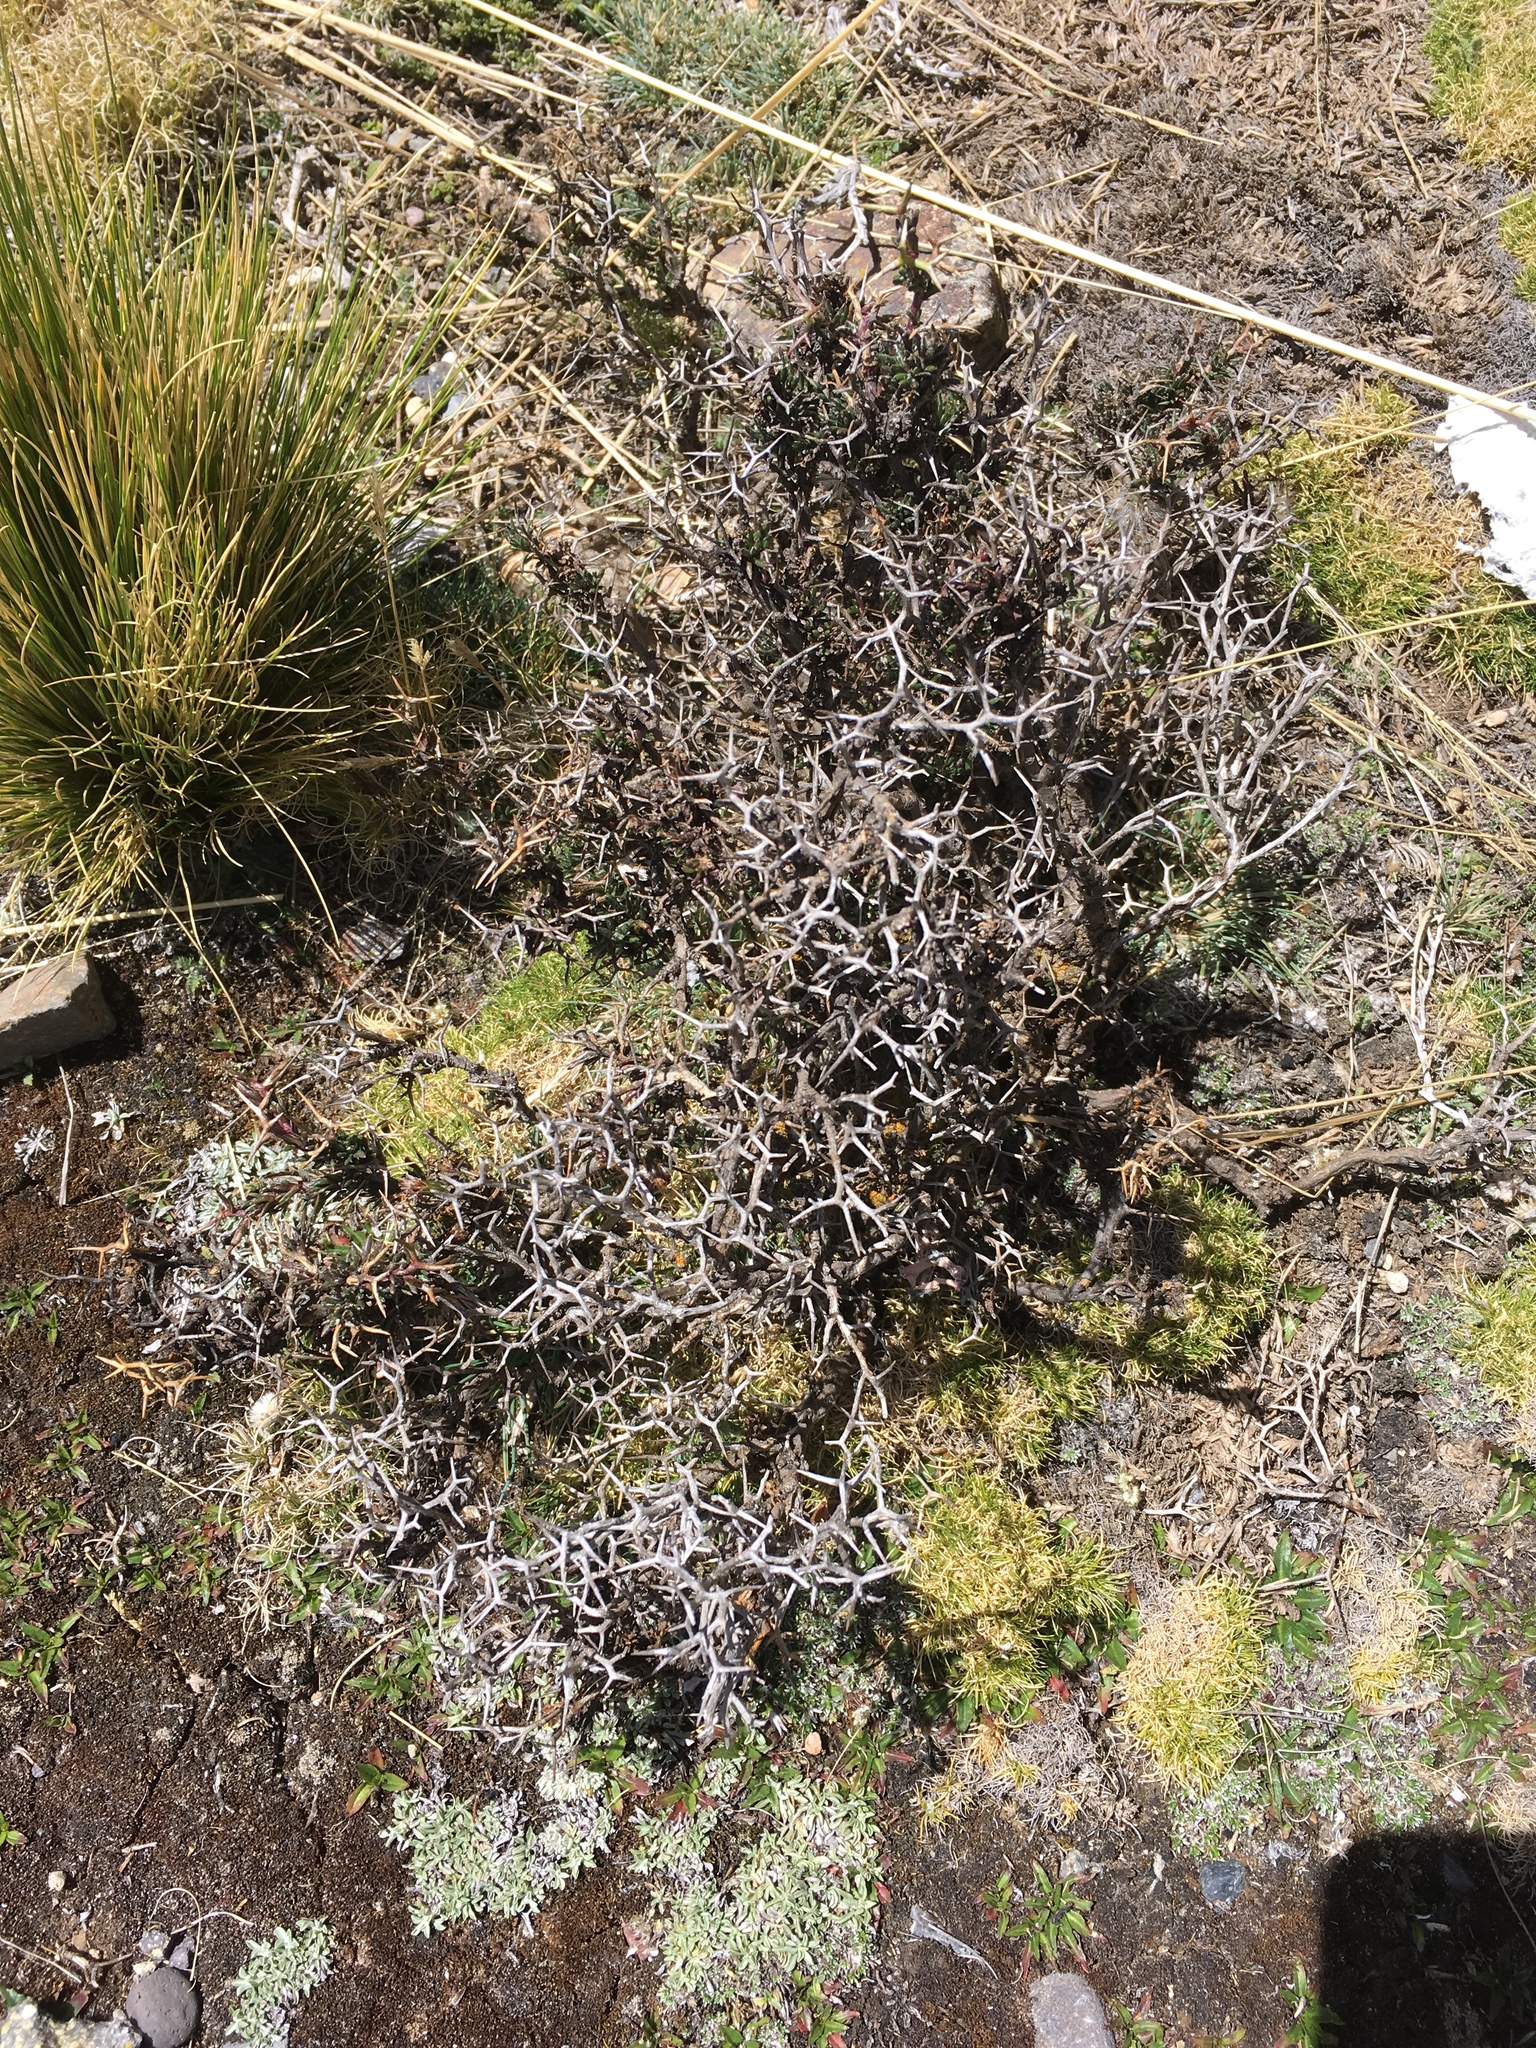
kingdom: Plantae
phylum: Tracheophyta
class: Magnoliopsida
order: Asterales
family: Asteraceae
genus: Senecio
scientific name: Senecio spinosus
